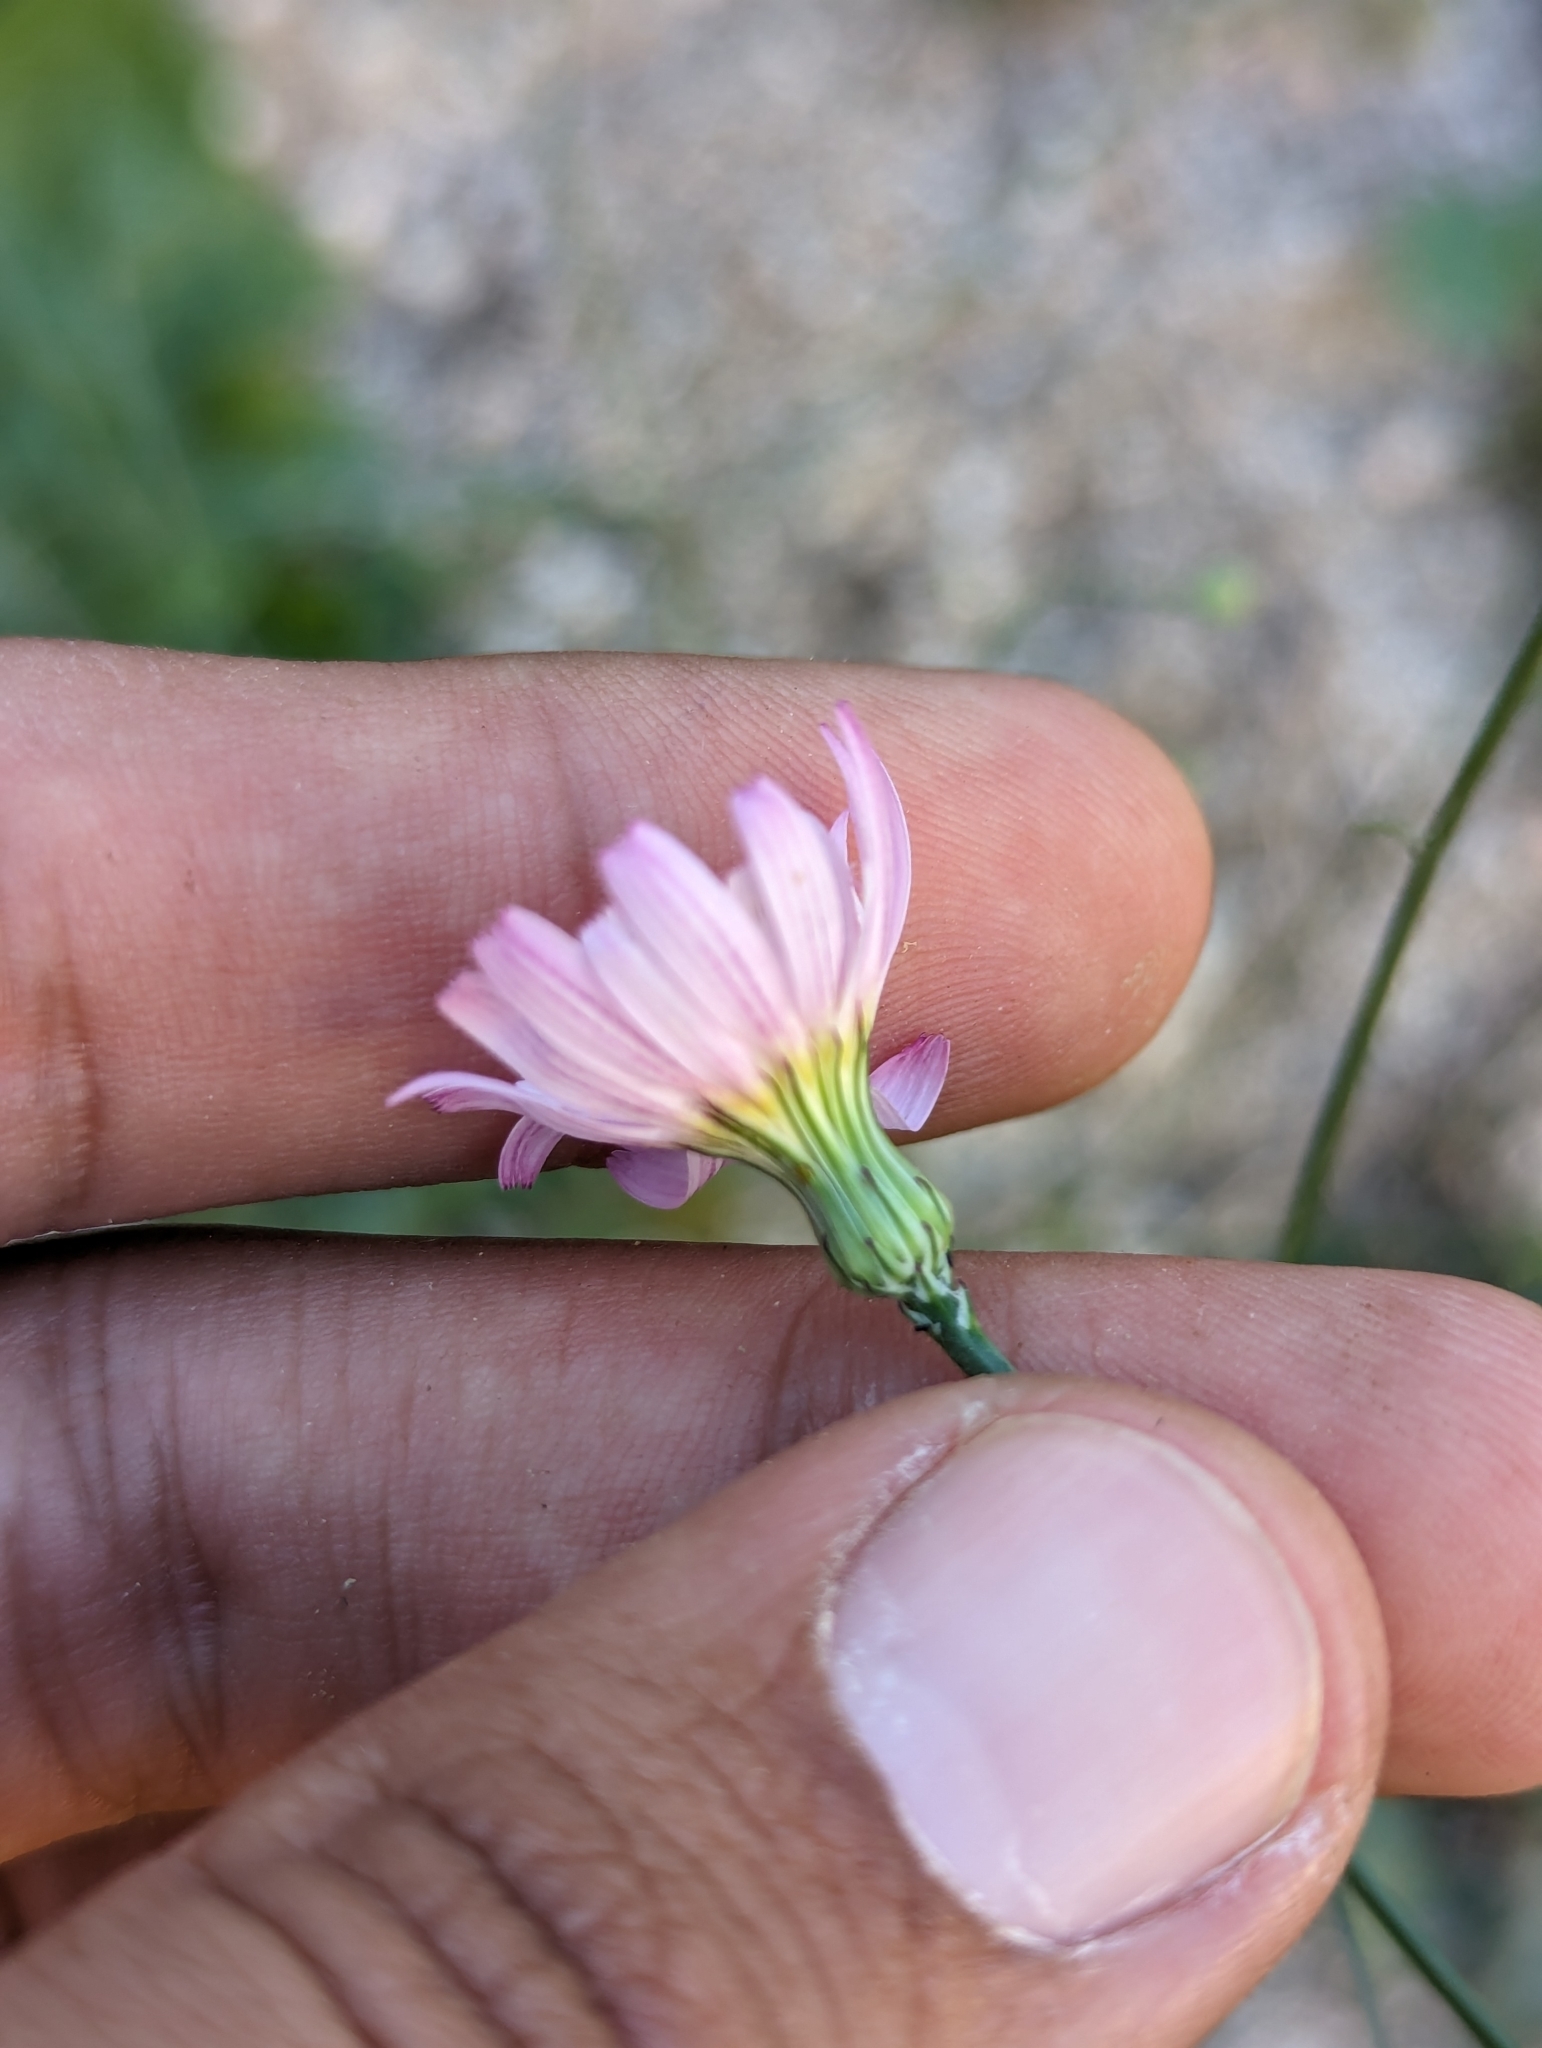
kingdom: Plantae
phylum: Tracheophyta
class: Magnoliopsida
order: Asterales
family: Asteraceae
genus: Malacothrix
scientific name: Malacothrix xanti
